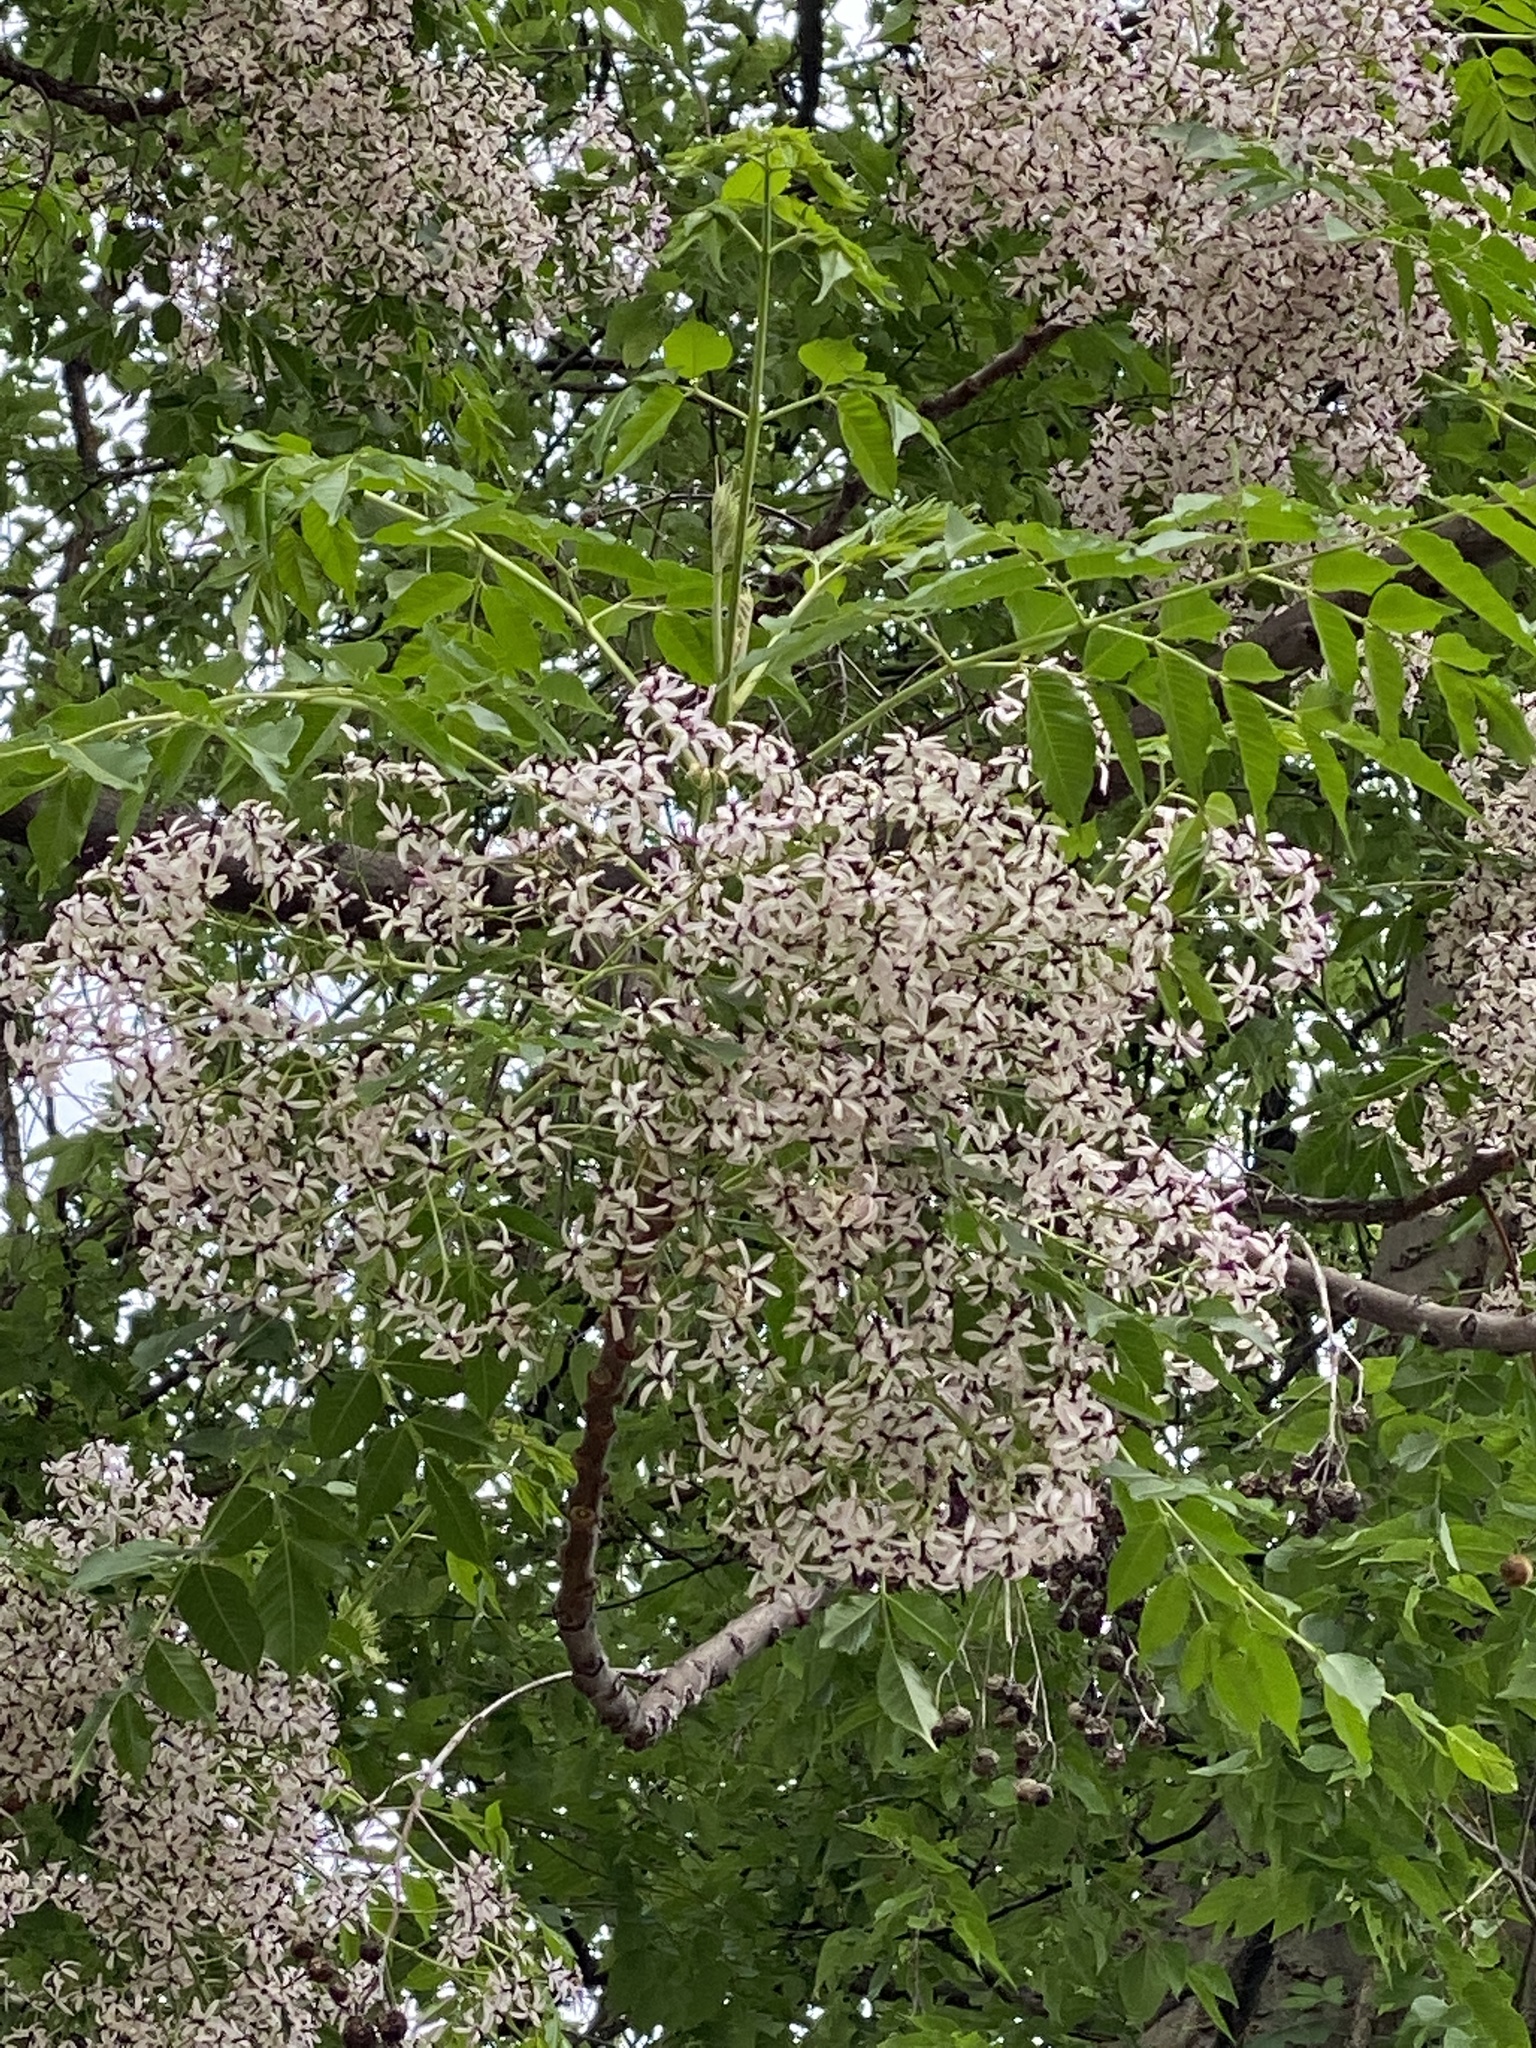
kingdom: Plantae
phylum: Tracheophyta
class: Magnoliopsida
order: Sapindales
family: Meliaceae
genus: Melia
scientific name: Melia azedarach
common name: Chinaberrytree
